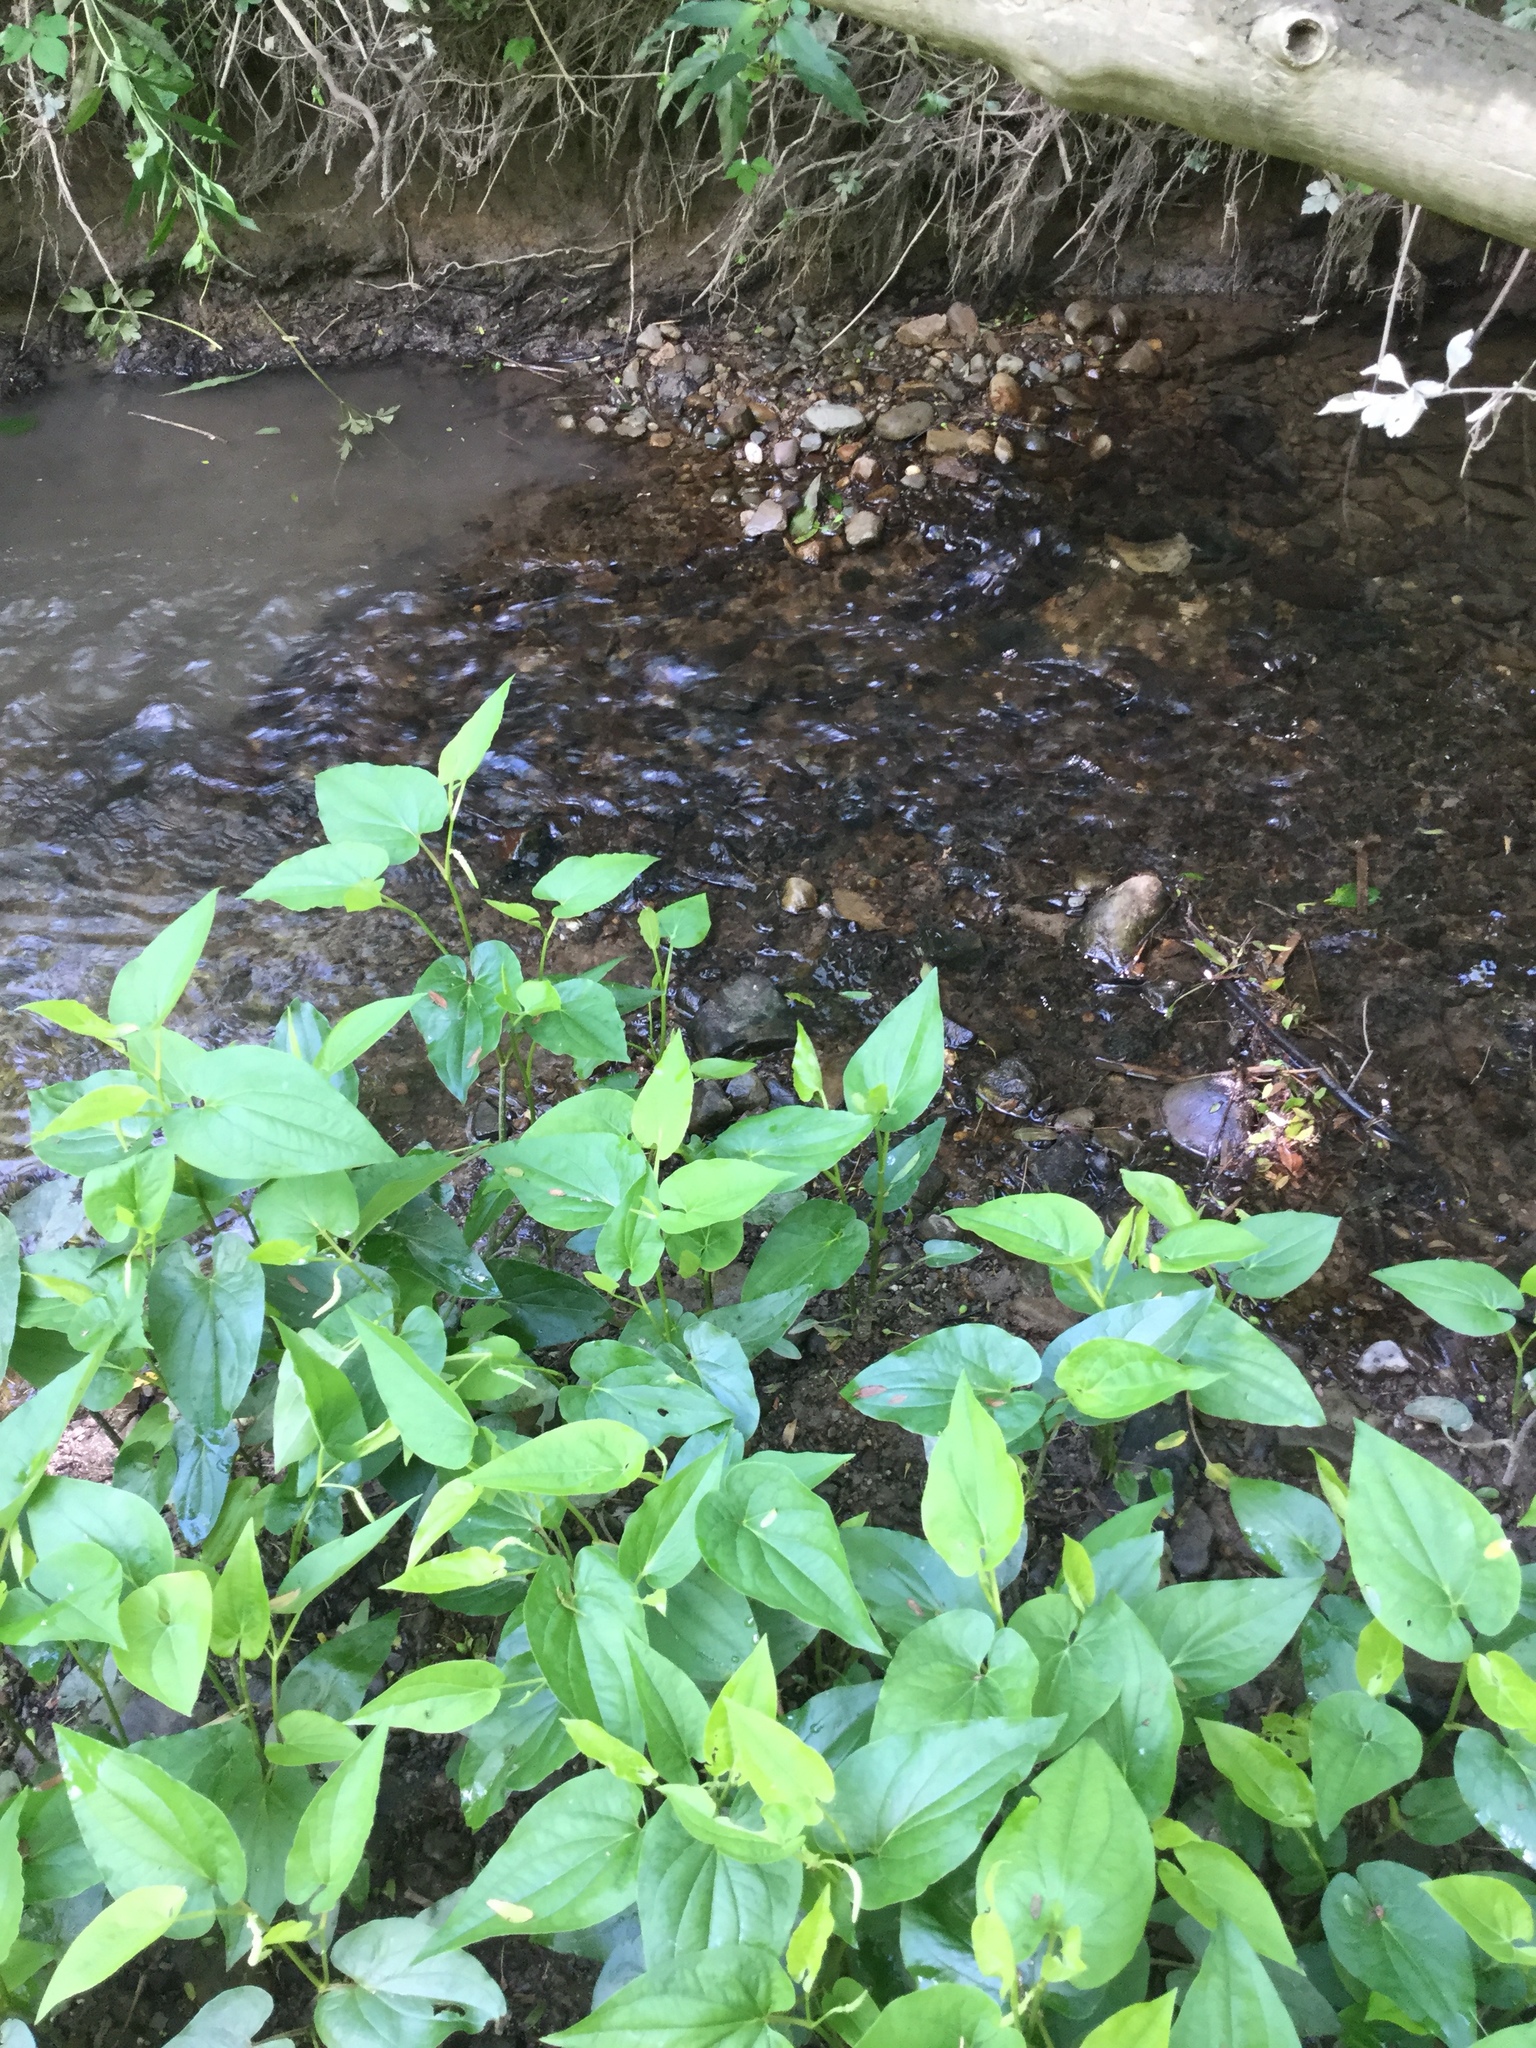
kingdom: Plantae
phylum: Tracheophyta
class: Magnoliopsida
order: Piperales
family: Saururaceae
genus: Saururus
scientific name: Saururus cernuus
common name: Lizard's-tail
